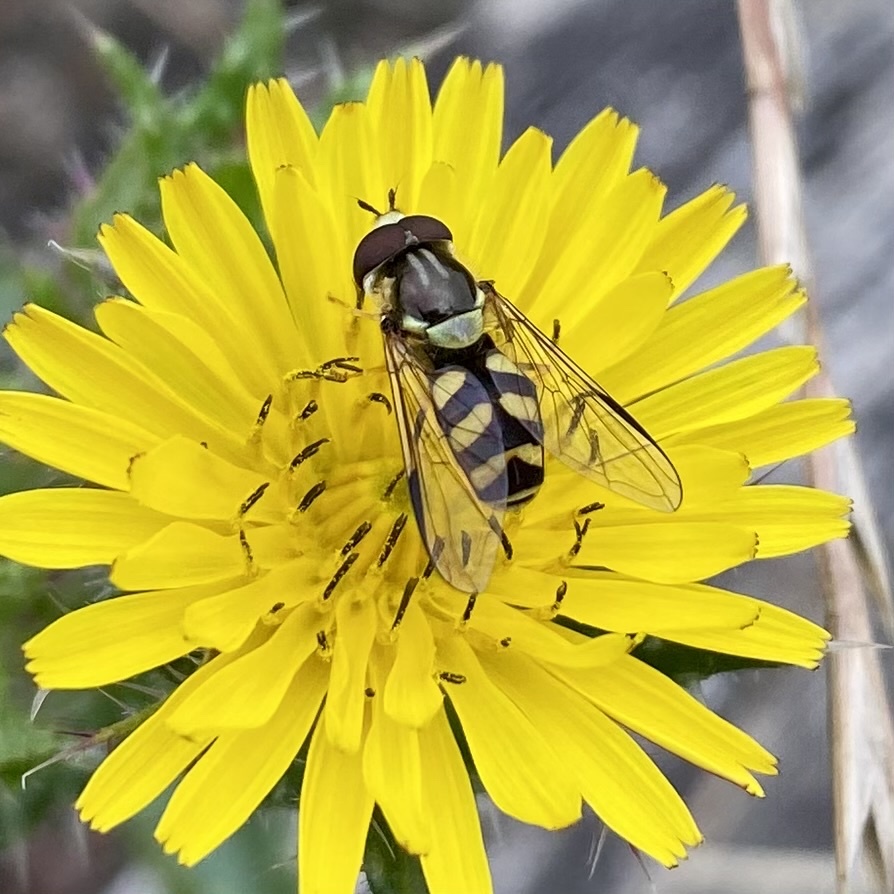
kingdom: Animalia
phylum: Arthropoda
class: Insecta
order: Diptera
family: Syrphidae
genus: Dasysyrphus
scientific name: Dasysyrphus albostriatus
